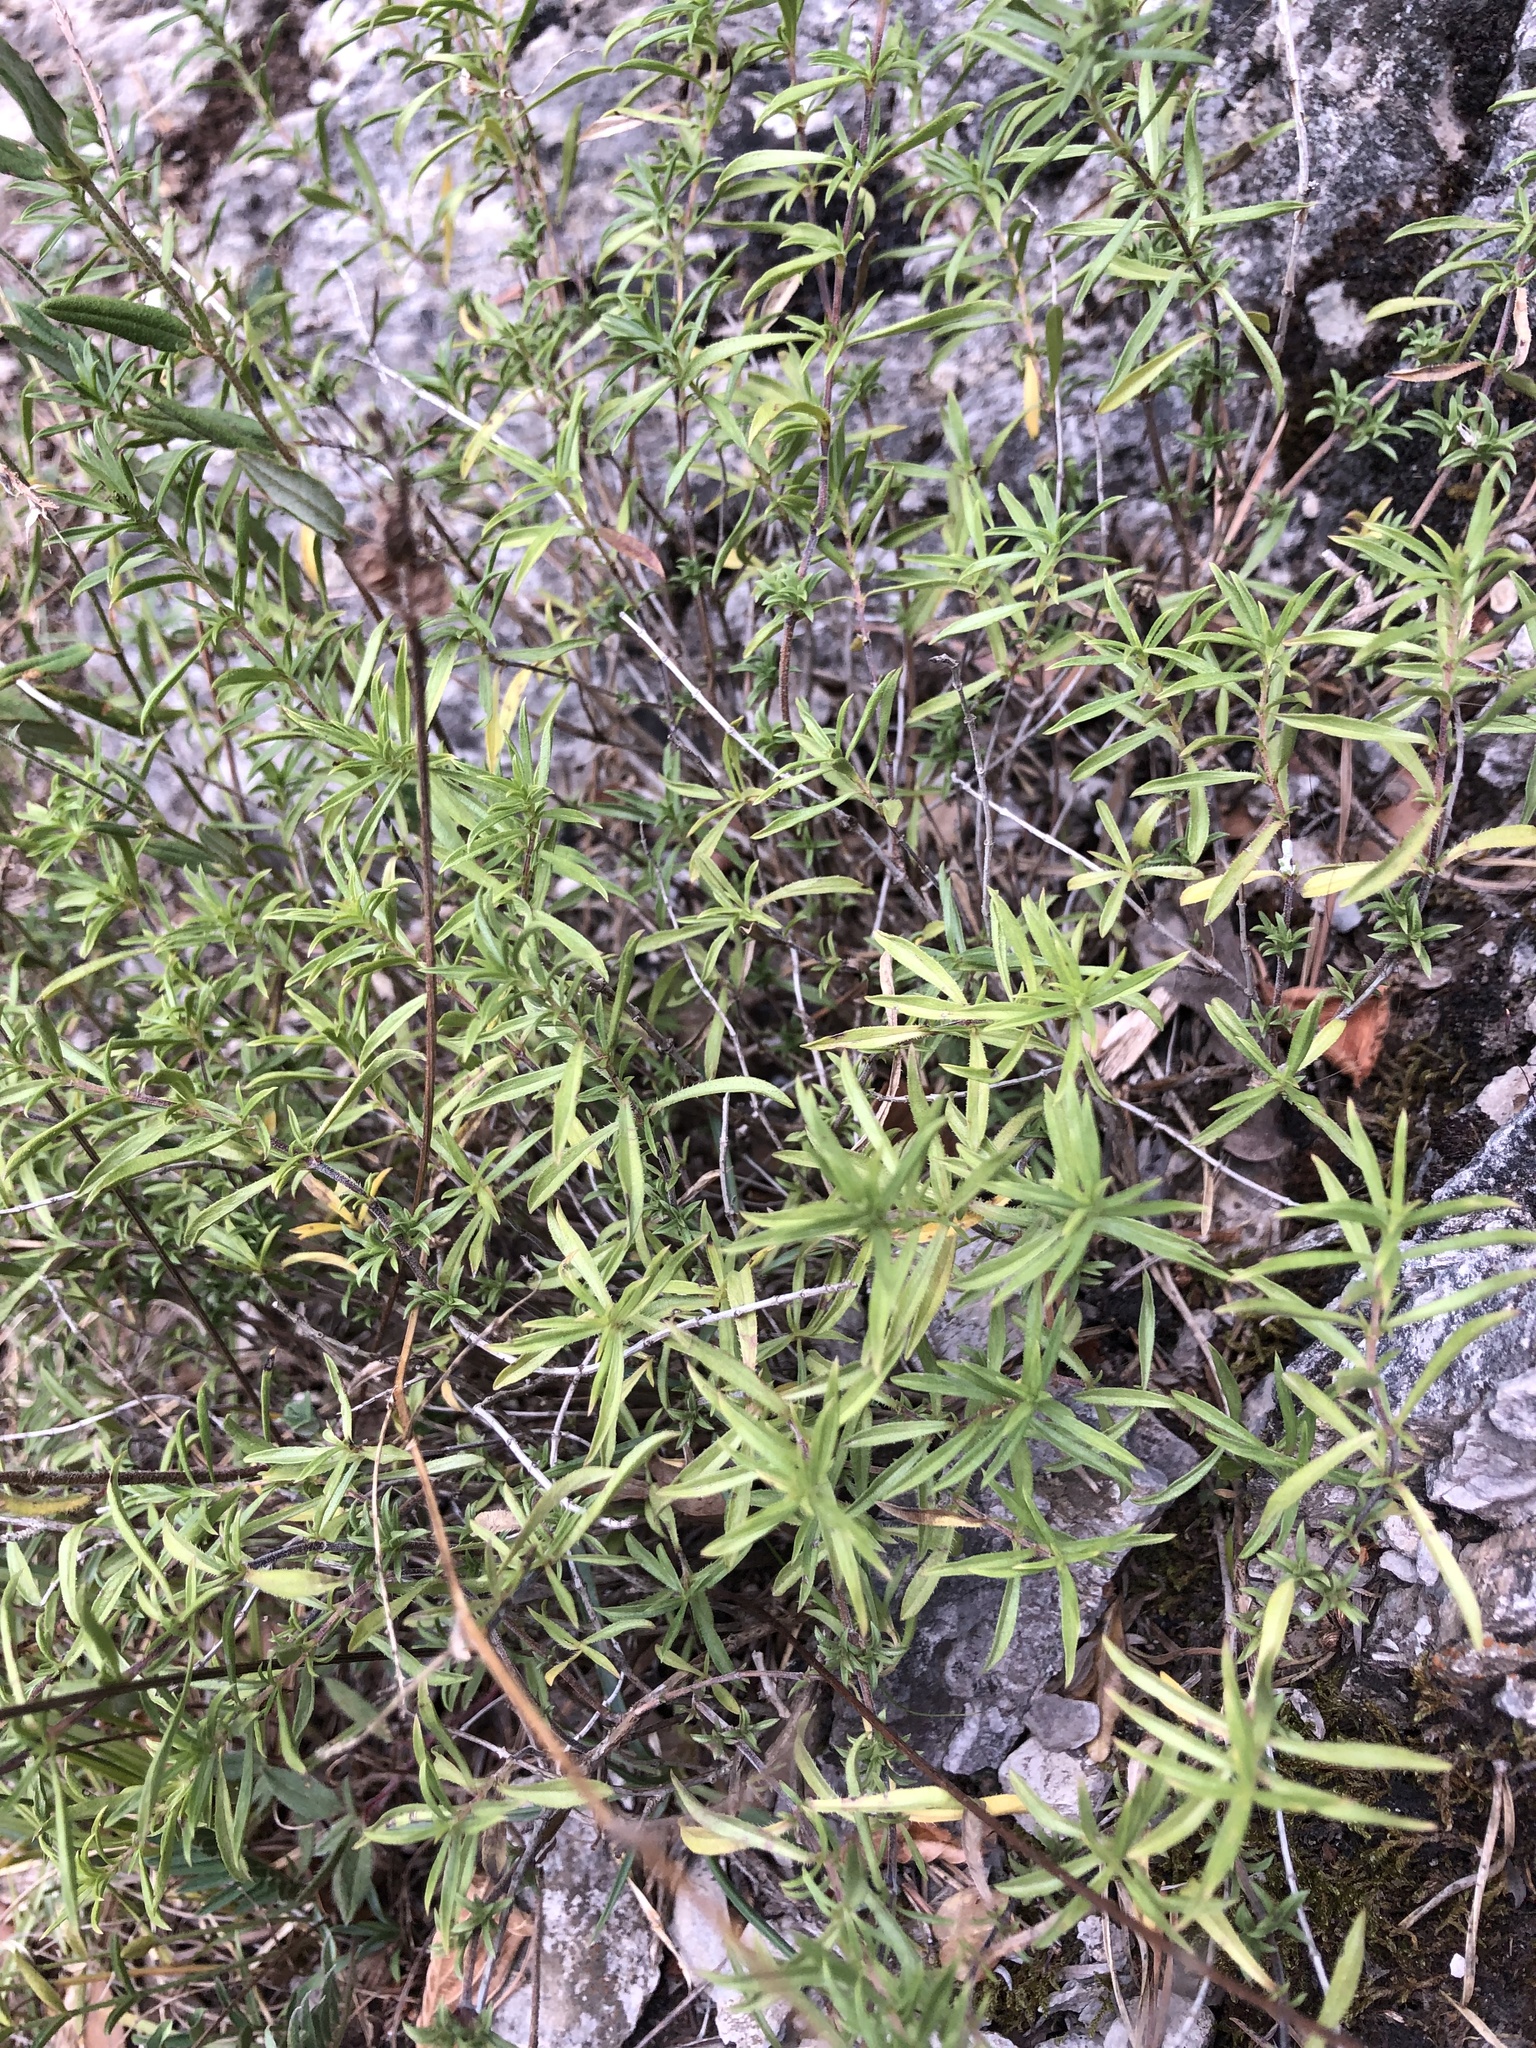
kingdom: Plantae
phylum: Tracheophyta
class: Magnoliopsida
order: Lamiales
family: Lamiaceae
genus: Satureja
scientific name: Satureja montana
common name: Winter savory
